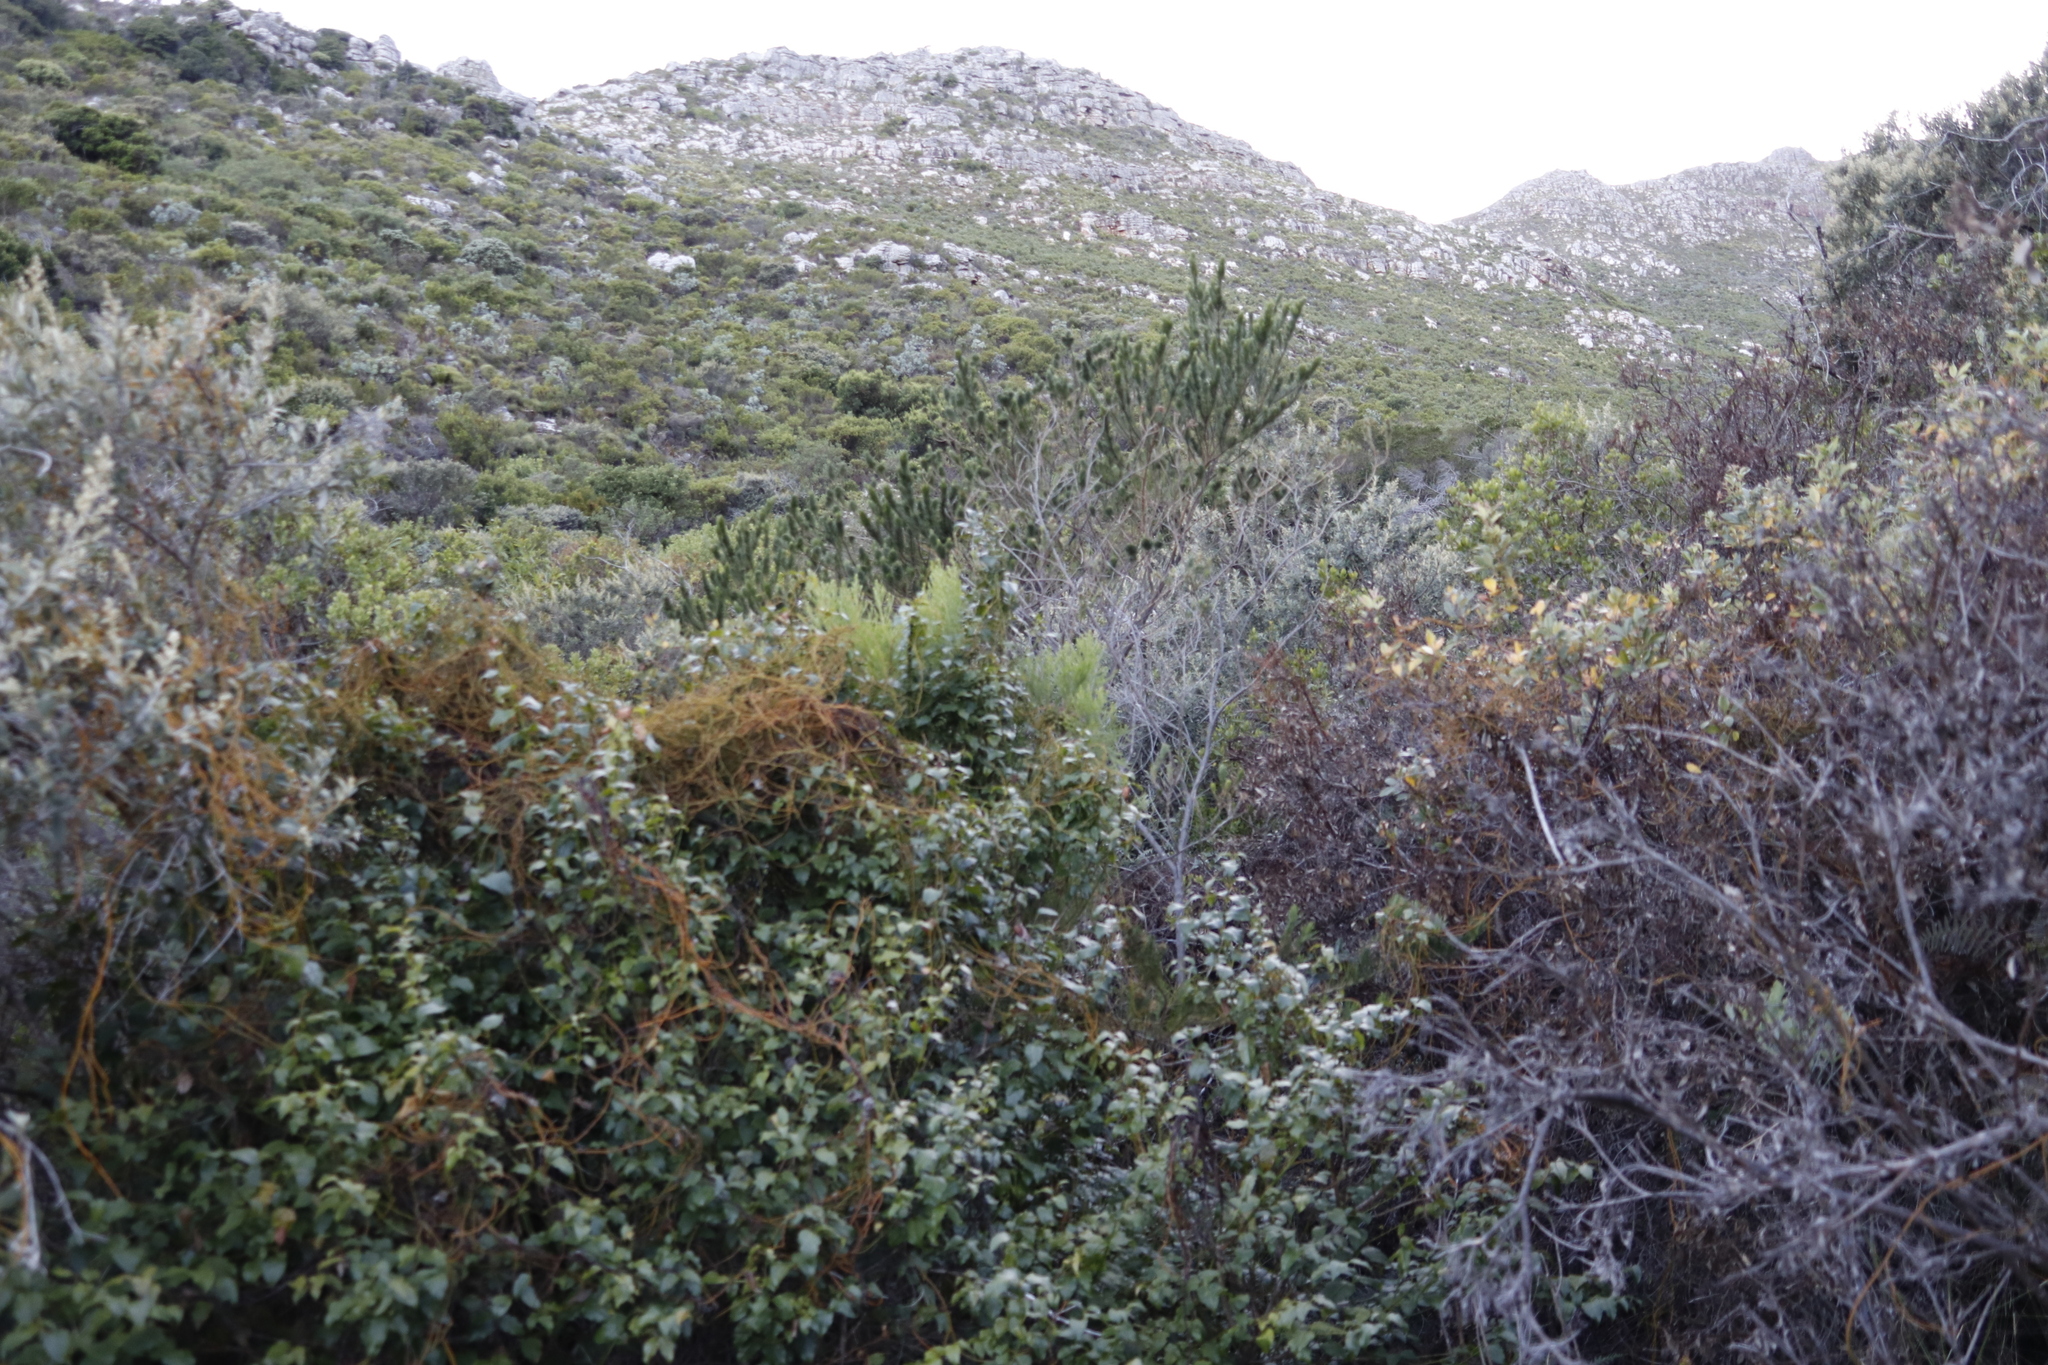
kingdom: Plantae
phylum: Tracheophyta
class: Magnoliopsida
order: Fabales
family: Fabaceae
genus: Psoralea
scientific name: Psoralea pinnata
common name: African scurfpea
